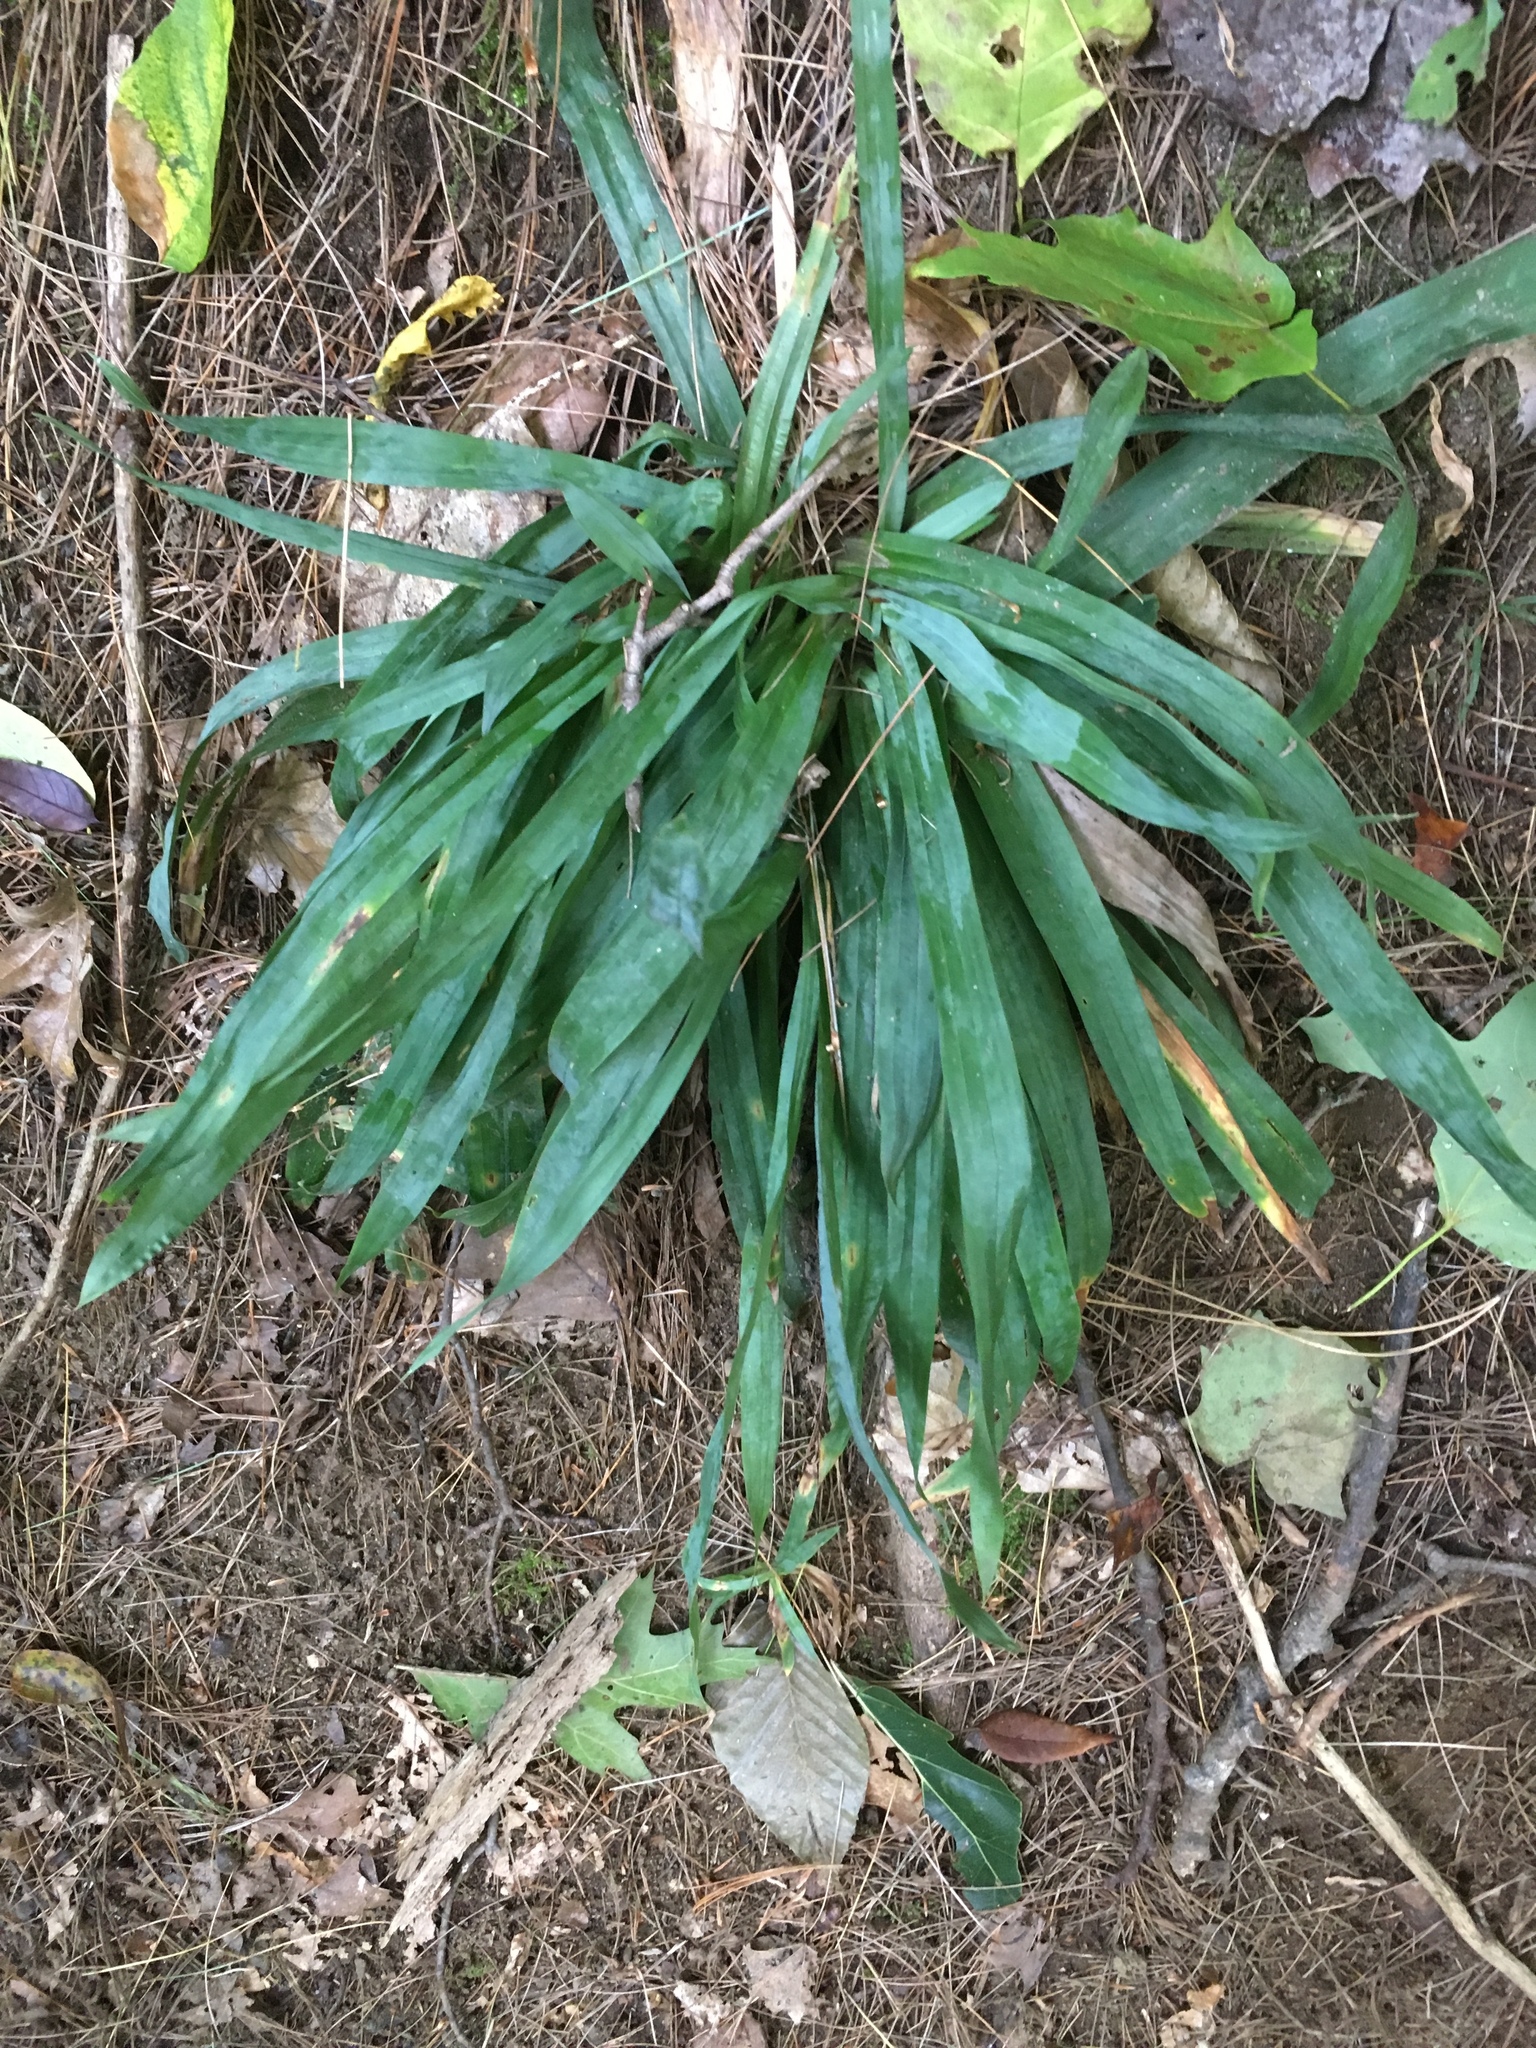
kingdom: Plantae
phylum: Tracheophyta
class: Liliopsida
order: Poales
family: Cyperaceae
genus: Carex
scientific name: Carex plantaginea
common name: Plantain-leaved sedge
